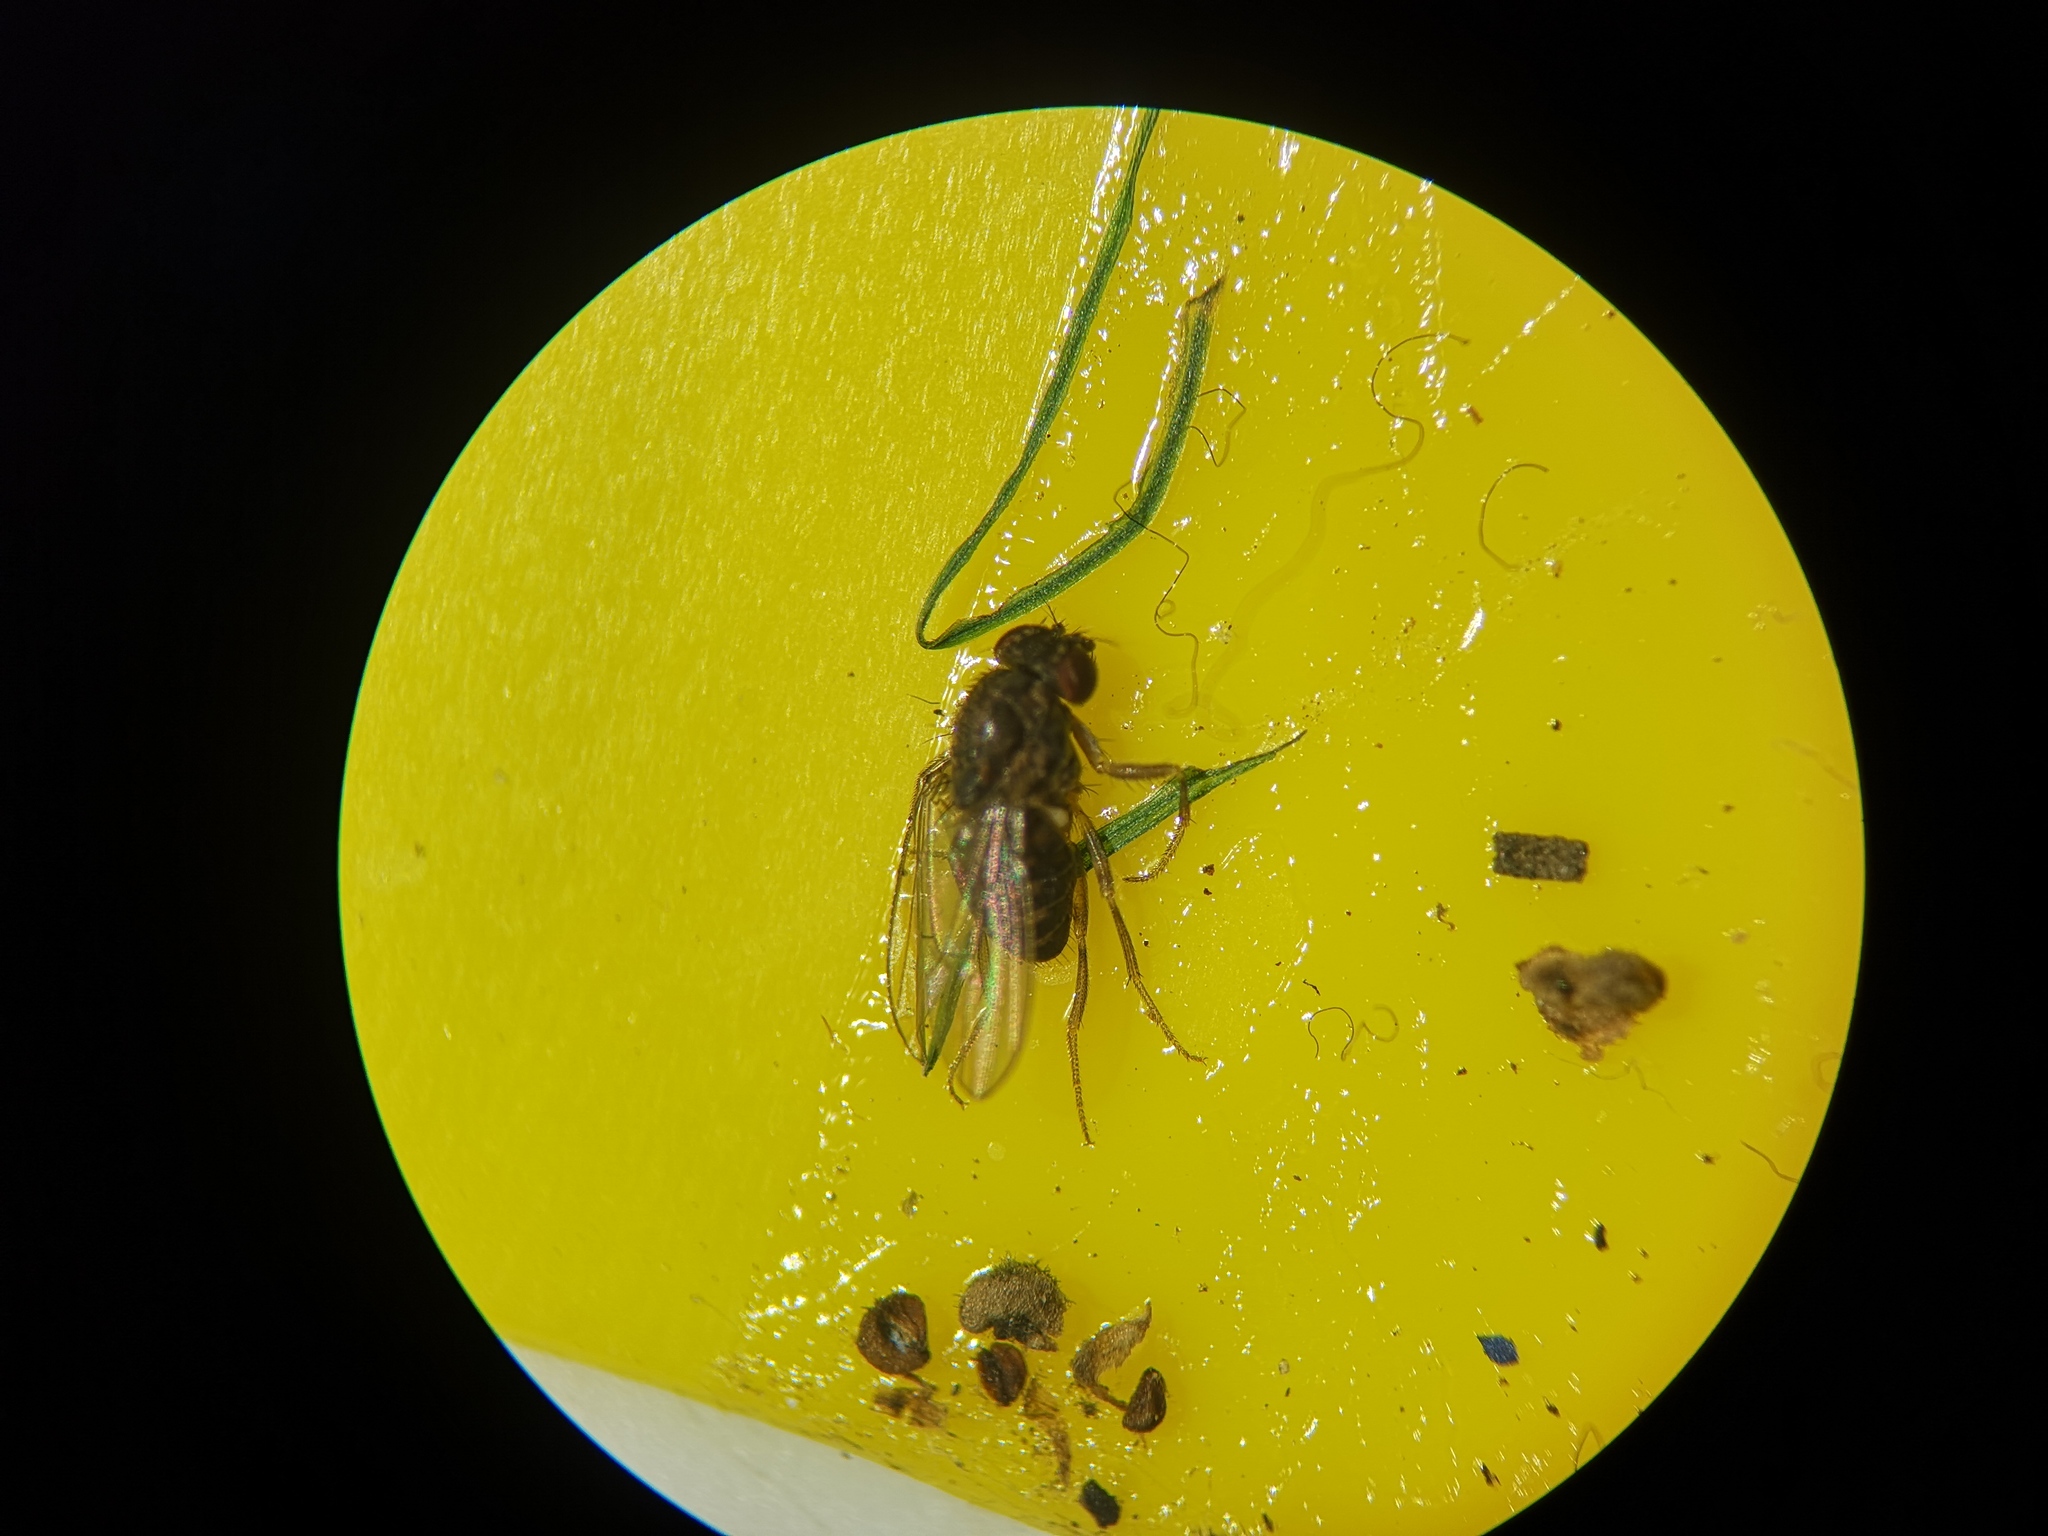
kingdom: Animalia
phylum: Arthropoda
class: Insecta
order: Diptera
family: Drosophilidae
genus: Drosophila
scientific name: Drosophila hydei
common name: Pomace fly
